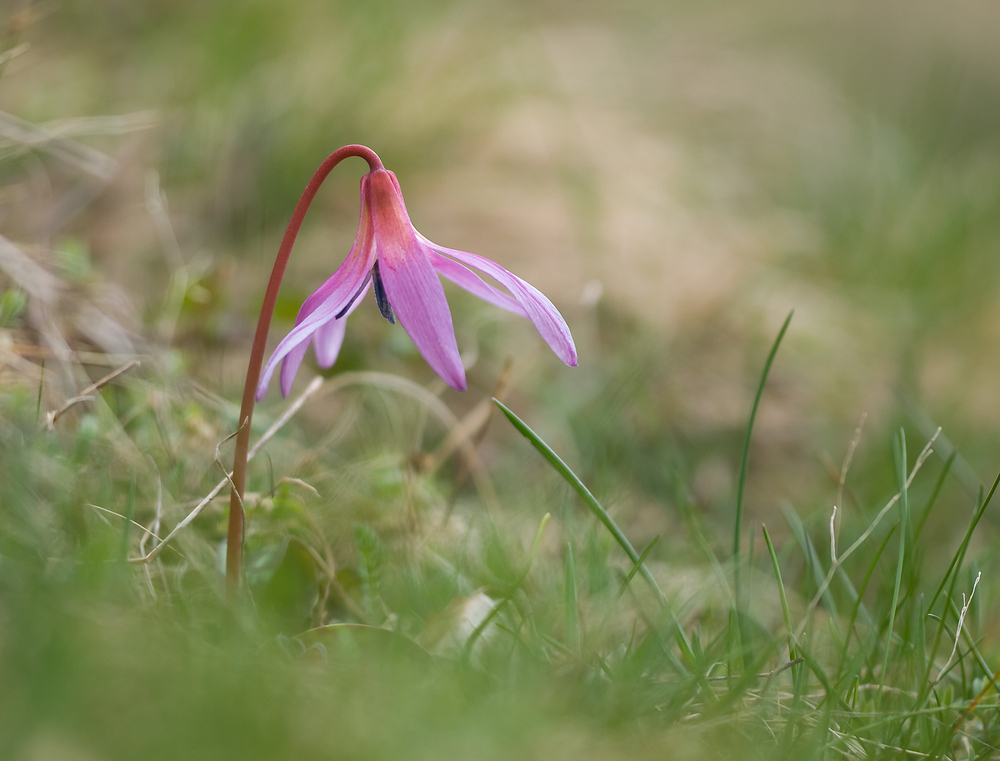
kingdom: Plantae
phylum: Tracheophyta
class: Liliopsida
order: Liliales
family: Liliaceae
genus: Erythronium
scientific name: Erythronium dens-canis
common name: Dog's-tooth-violet
